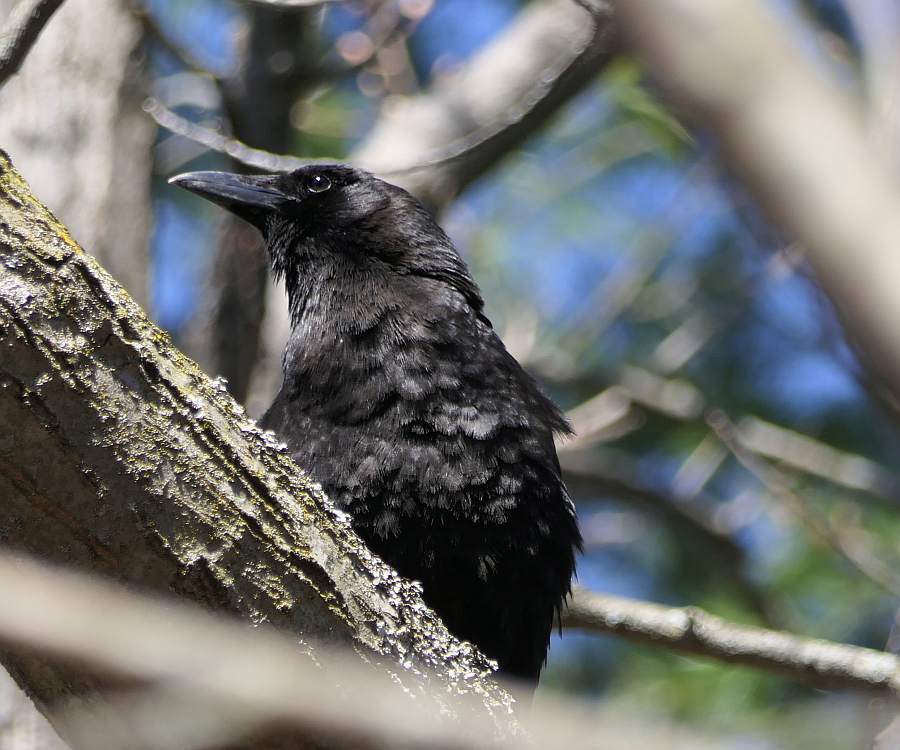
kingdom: Animalia
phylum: Chordata
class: Aves
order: Passeriformes
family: Corvidae
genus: Corvus
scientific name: Corvus brachyrhynchos
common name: American crow
